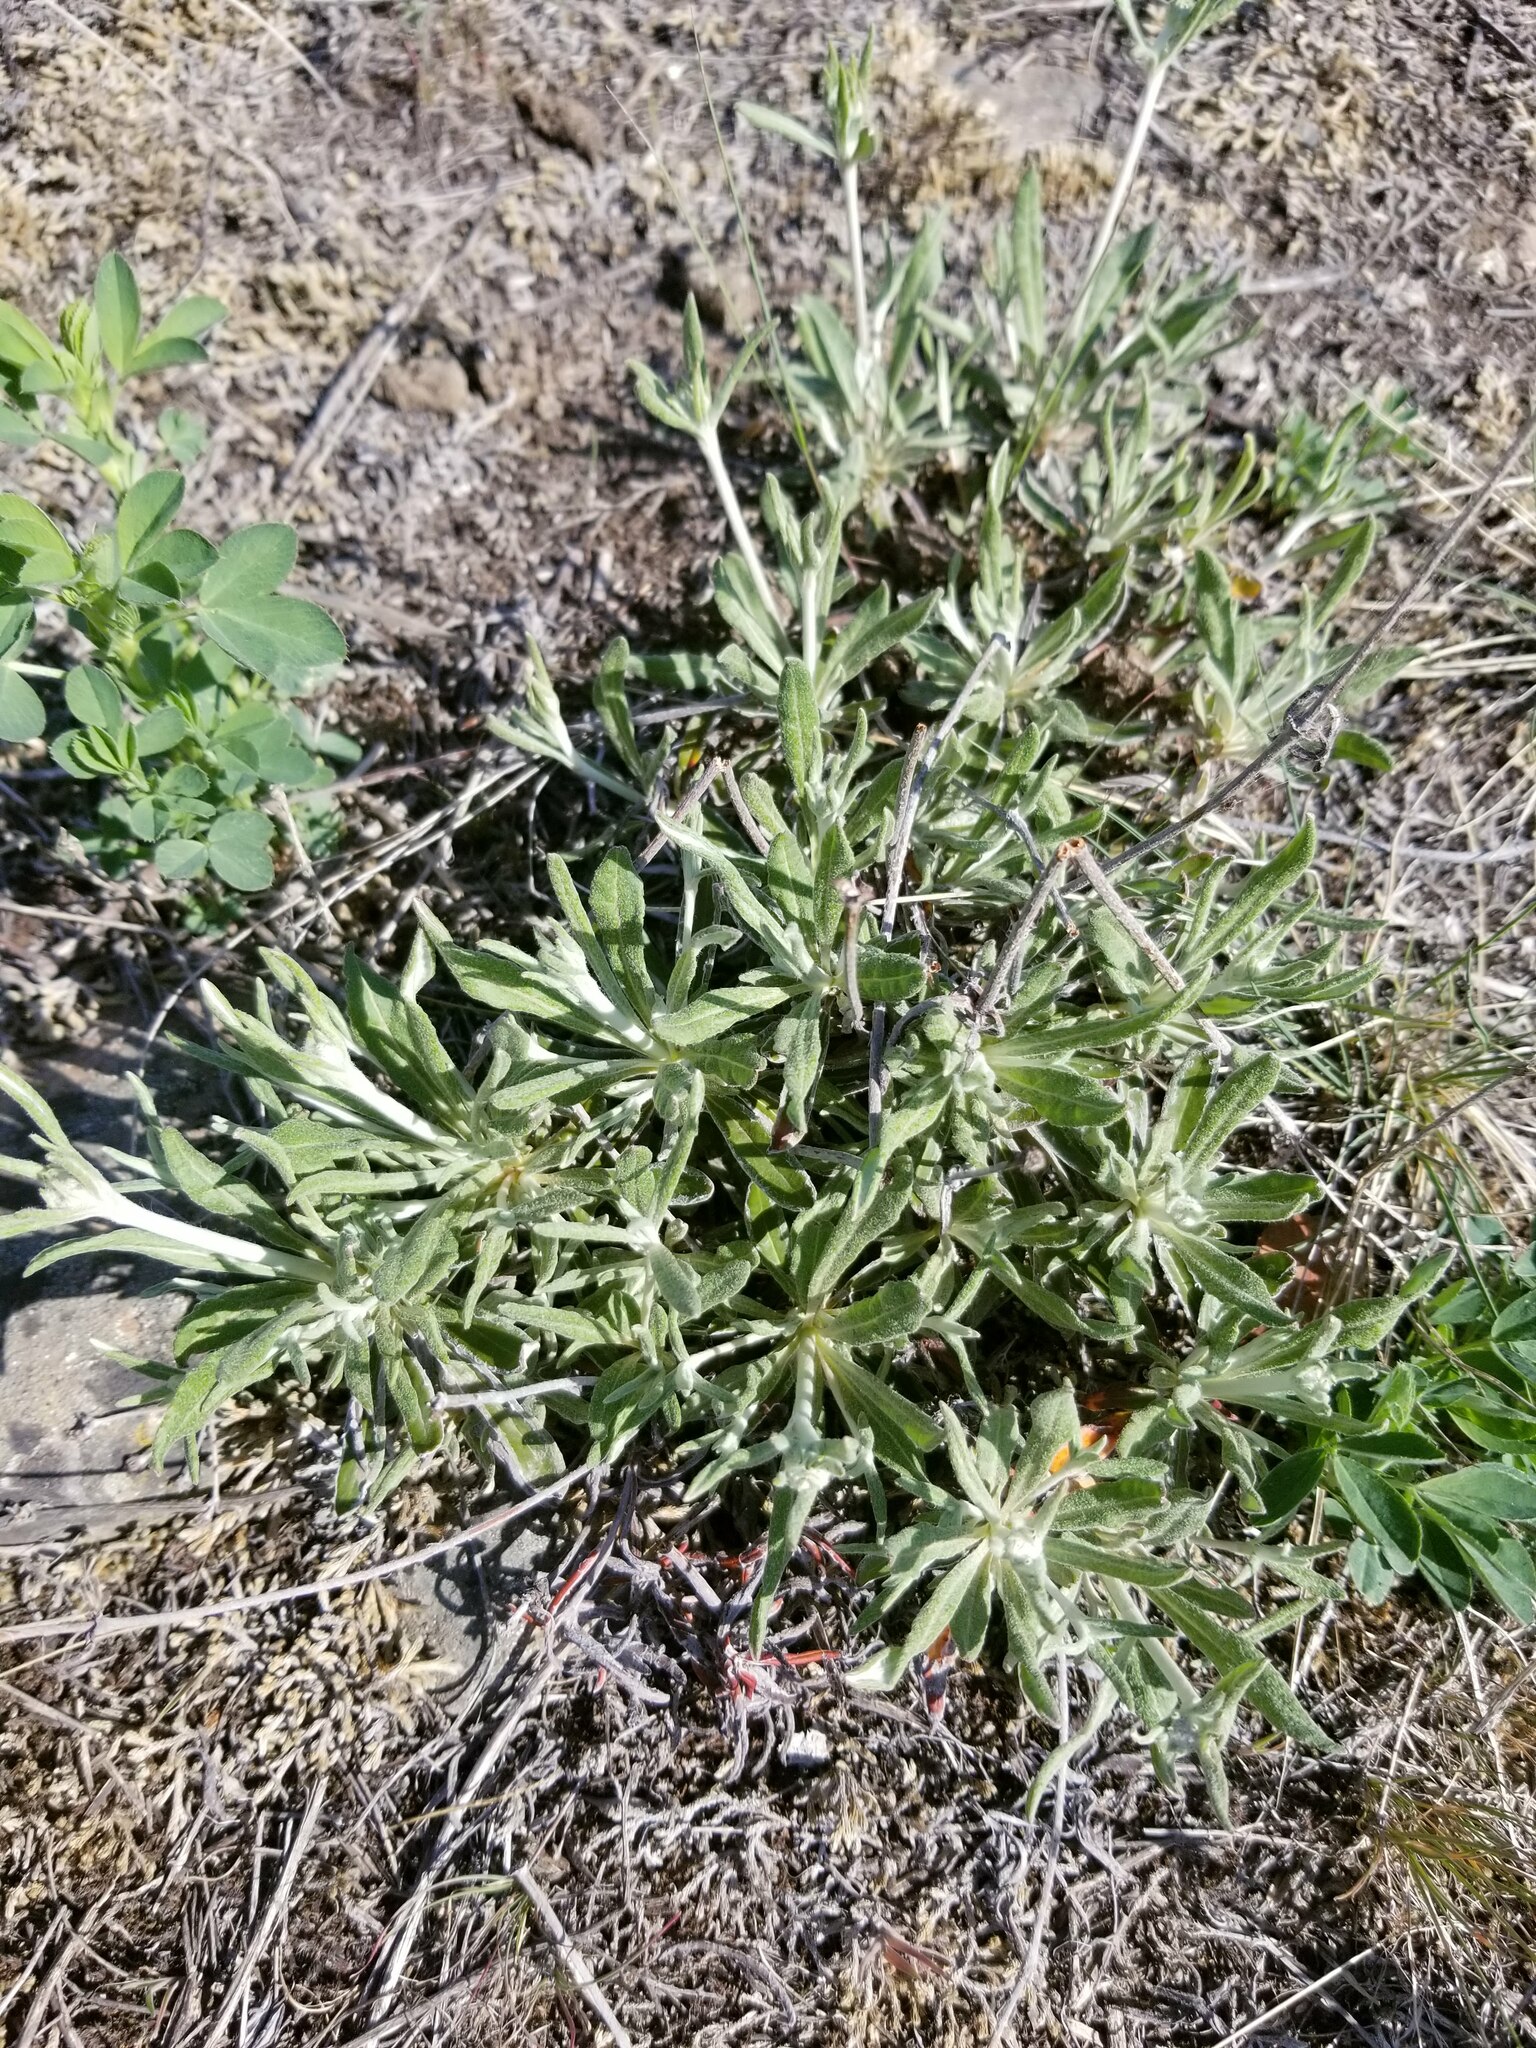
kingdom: Plantae
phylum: Tracheophyta
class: Magnoliopsida
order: Caryophyllales
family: Polygonaceae
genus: Eriogonum
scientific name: Eriogonum heracleoides
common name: Wyeth's buckwheat
